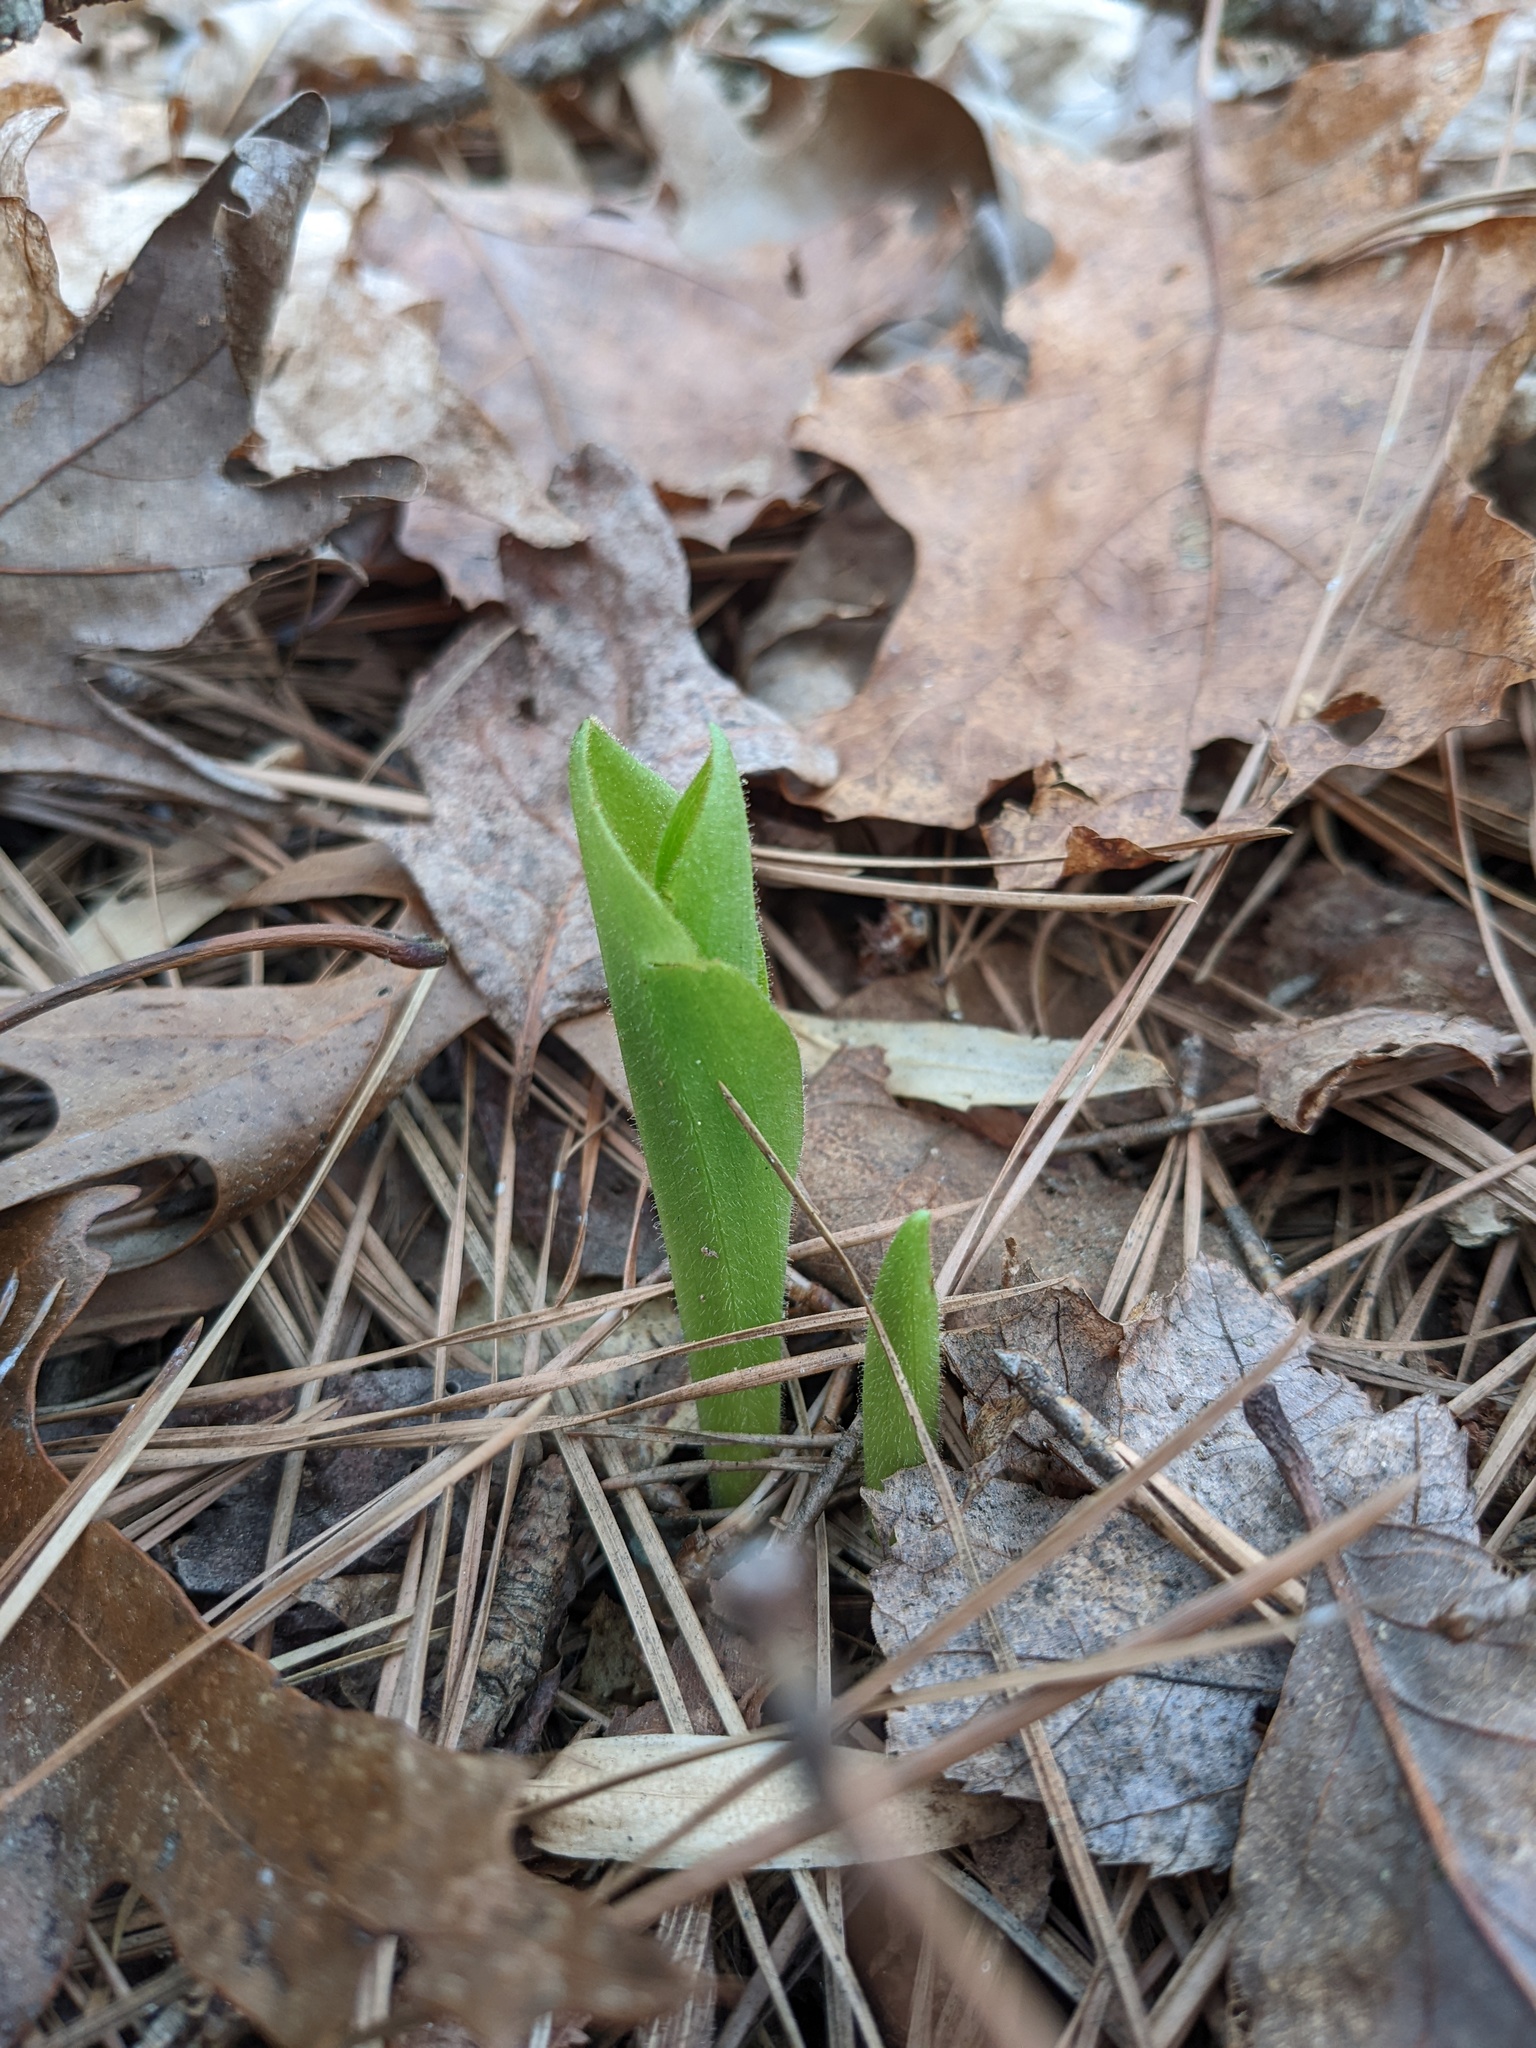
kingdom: Plantae
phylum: Tracheophyta
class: Liliopsida
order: Asparagales
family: Orchidaceae
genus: Cypripedium
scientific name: Cypripedium acaule
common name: Pink lady's-slipper
